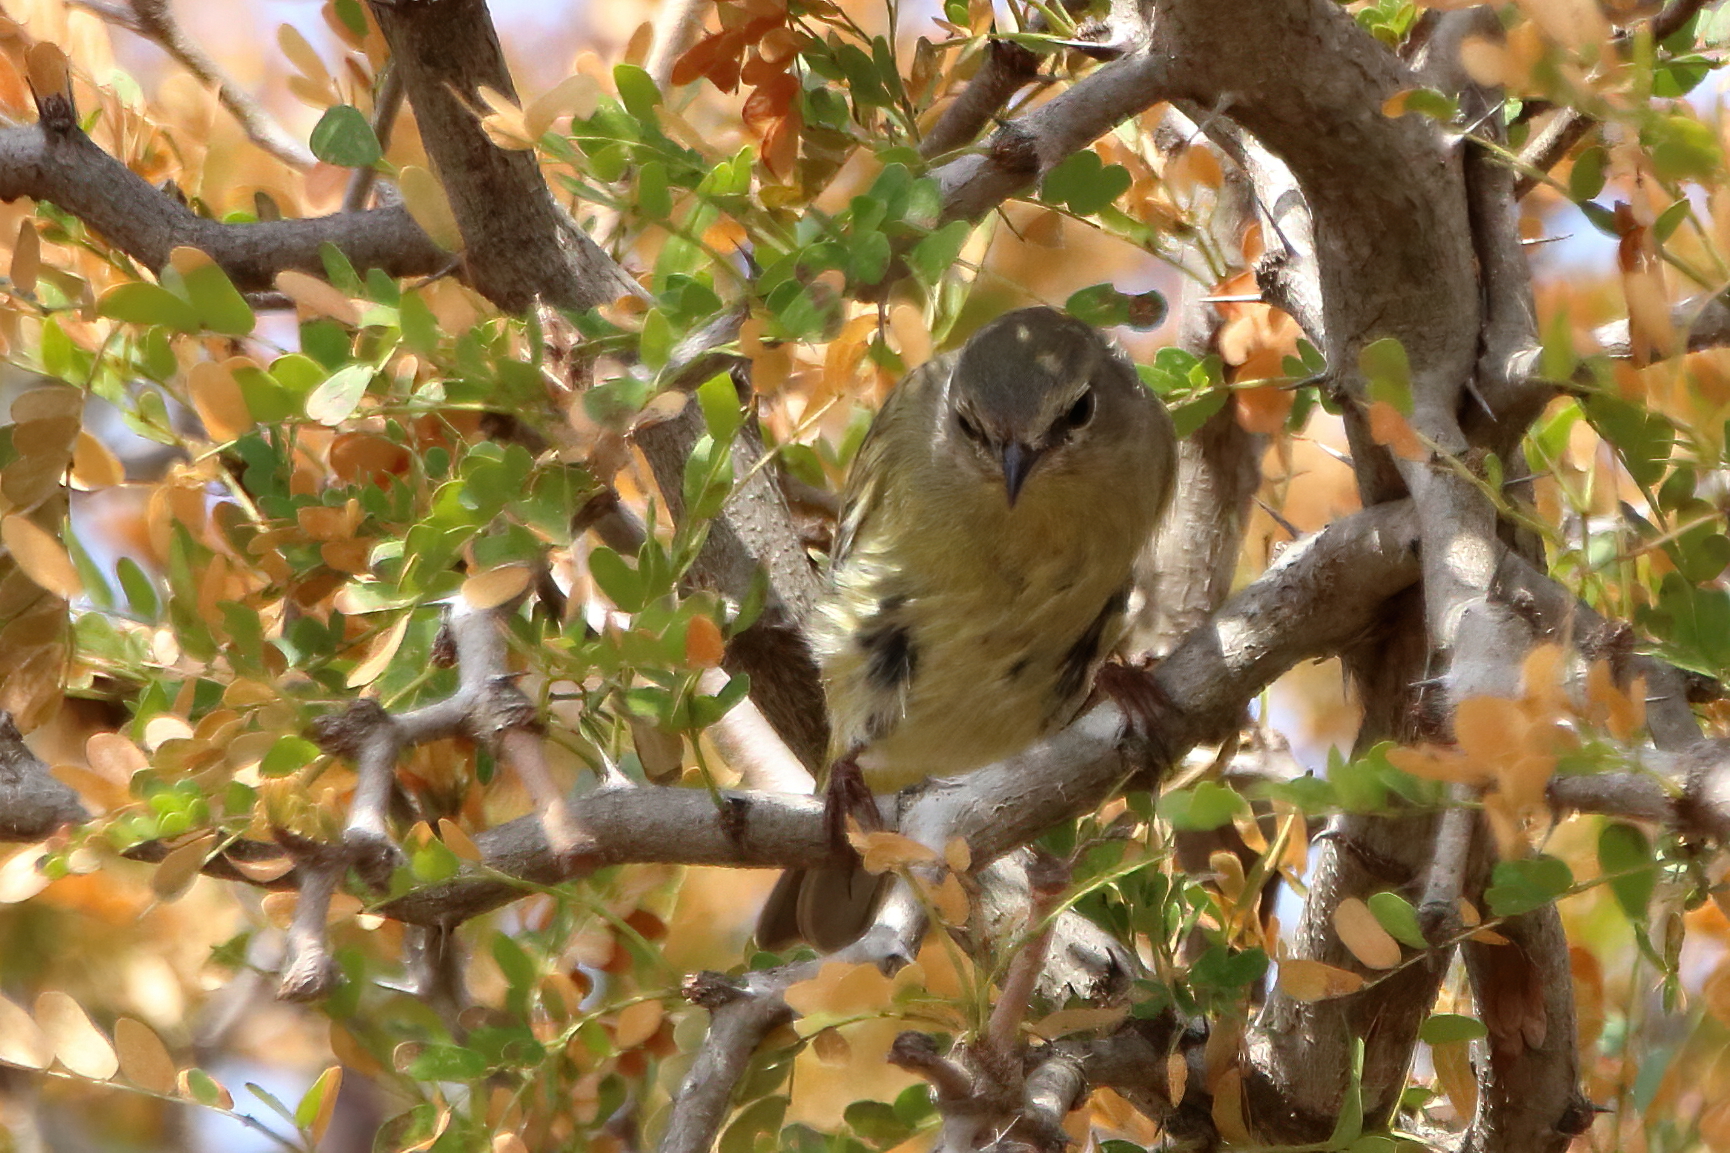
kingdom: Animalia
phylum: Chordata
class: Aves
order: Passeriformes
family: Parulidae
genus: Leiothlypis
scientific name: Leiothlypis celata
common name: Orange-crowned warbler
